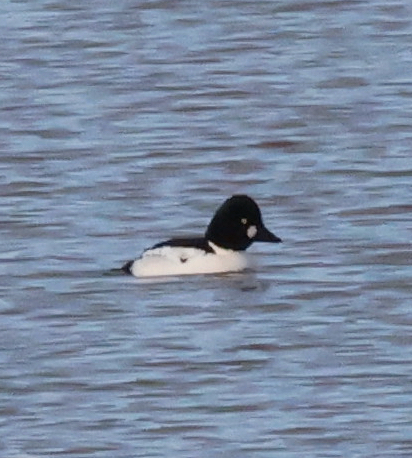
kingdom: Animalia
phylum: Chordata
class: Aves
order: Anseriformes
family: Anatidae
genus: Bucephala
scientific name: Bucephala clangula
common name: Common goldeneye
